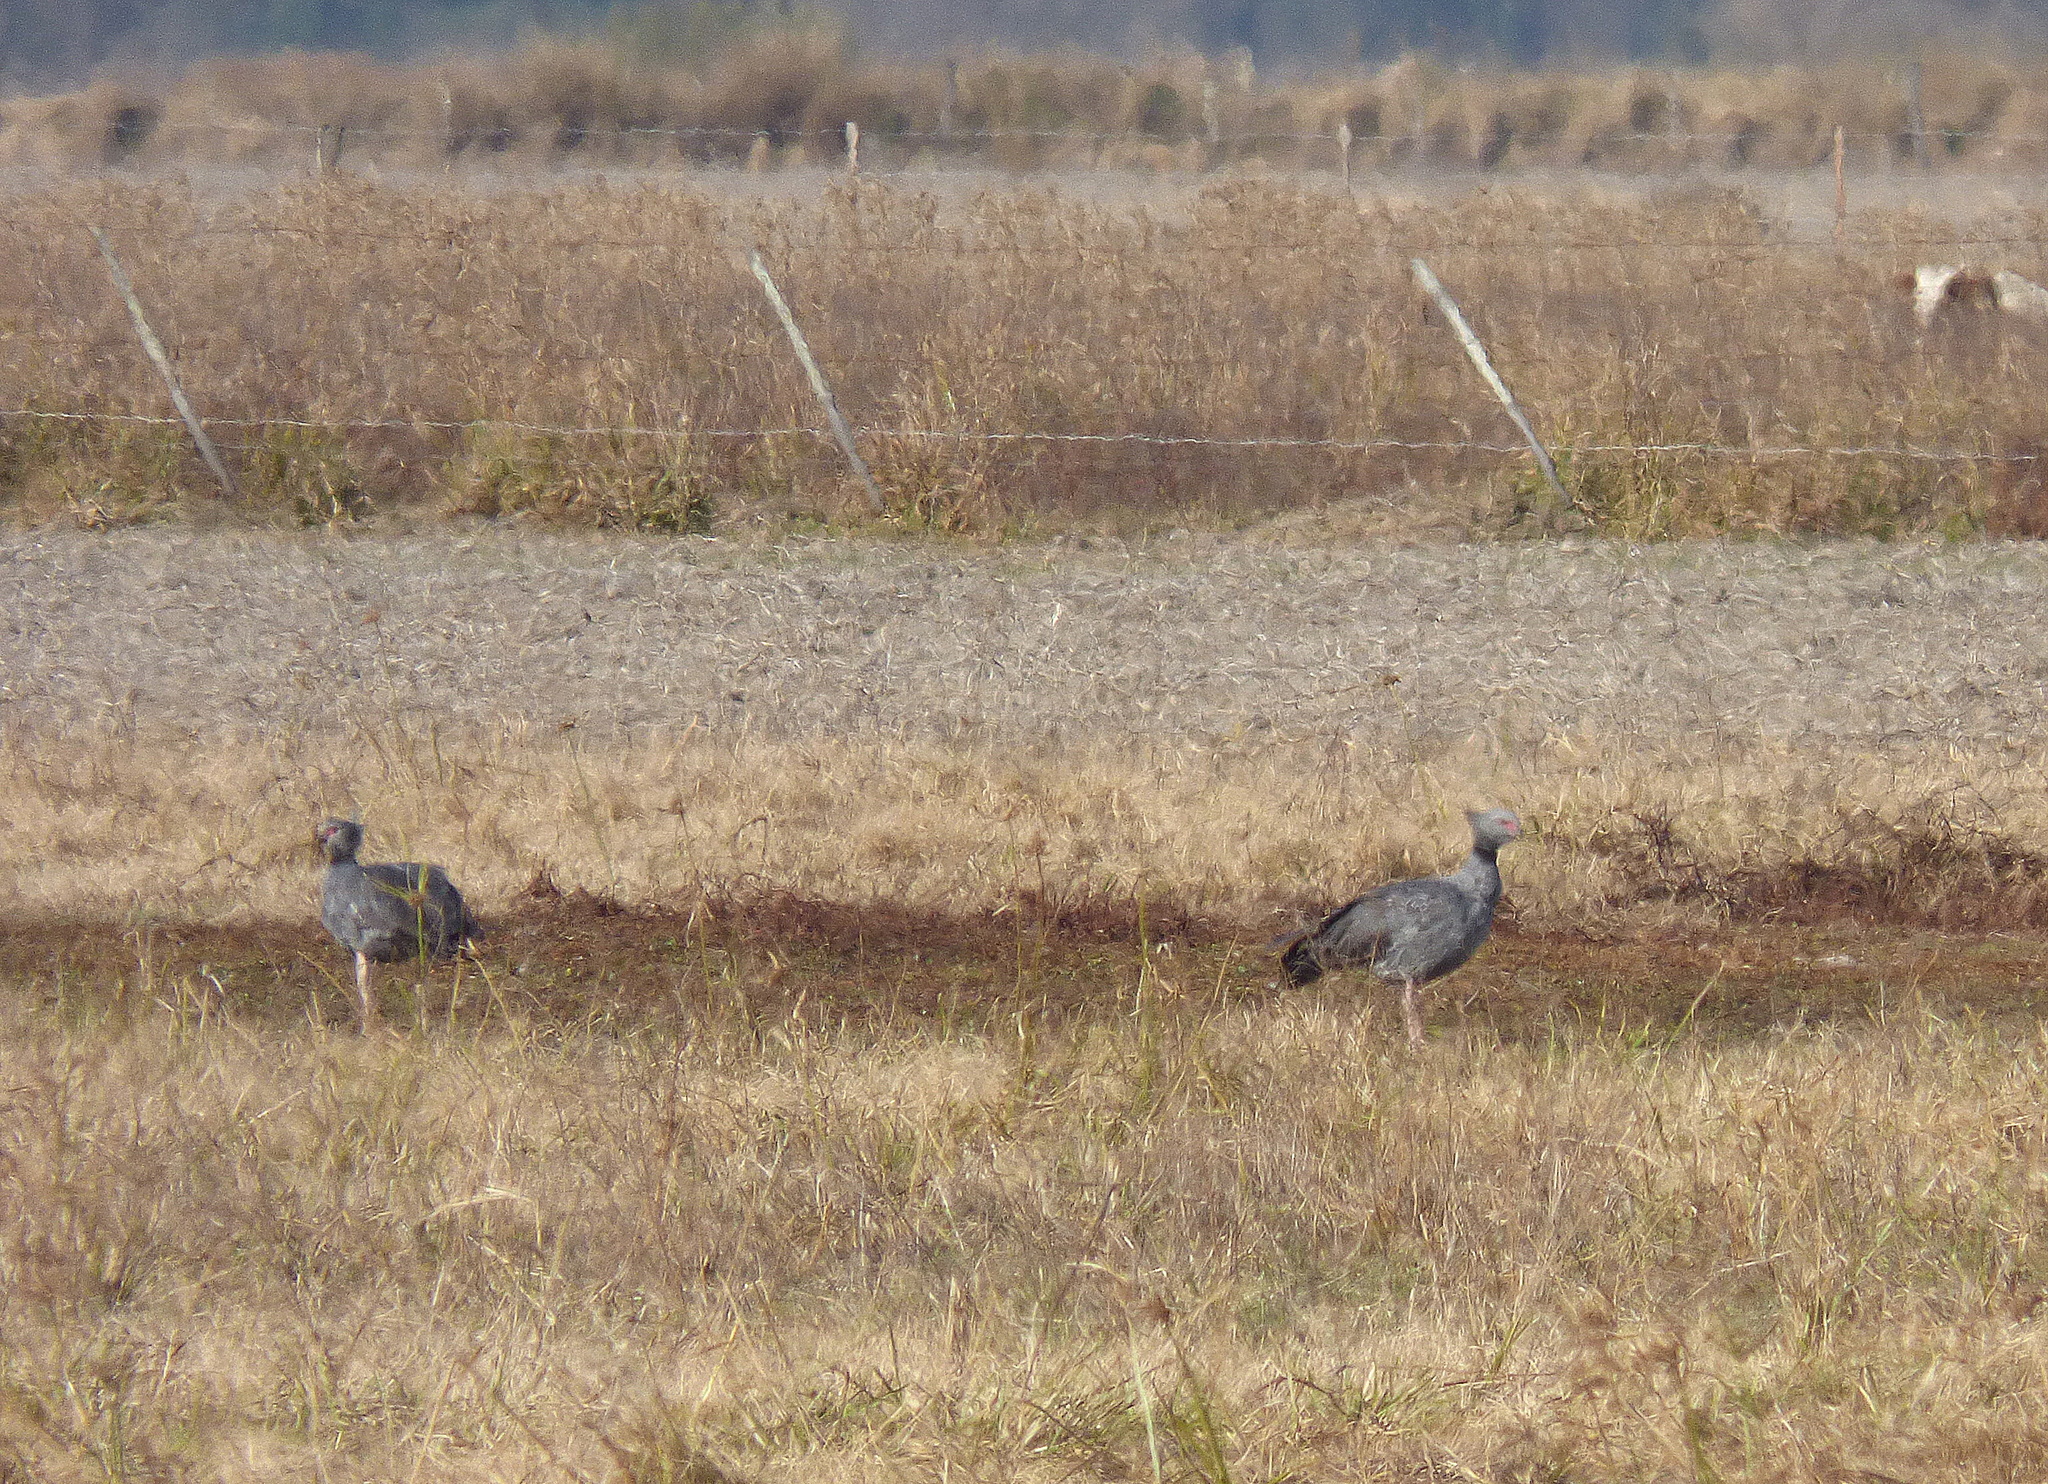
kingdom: Animalia
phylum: Chordata
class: Aves
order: Anseriformes
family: Anhimidae
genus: Chauna
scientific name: Chauna torquata
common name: Southern screamer
